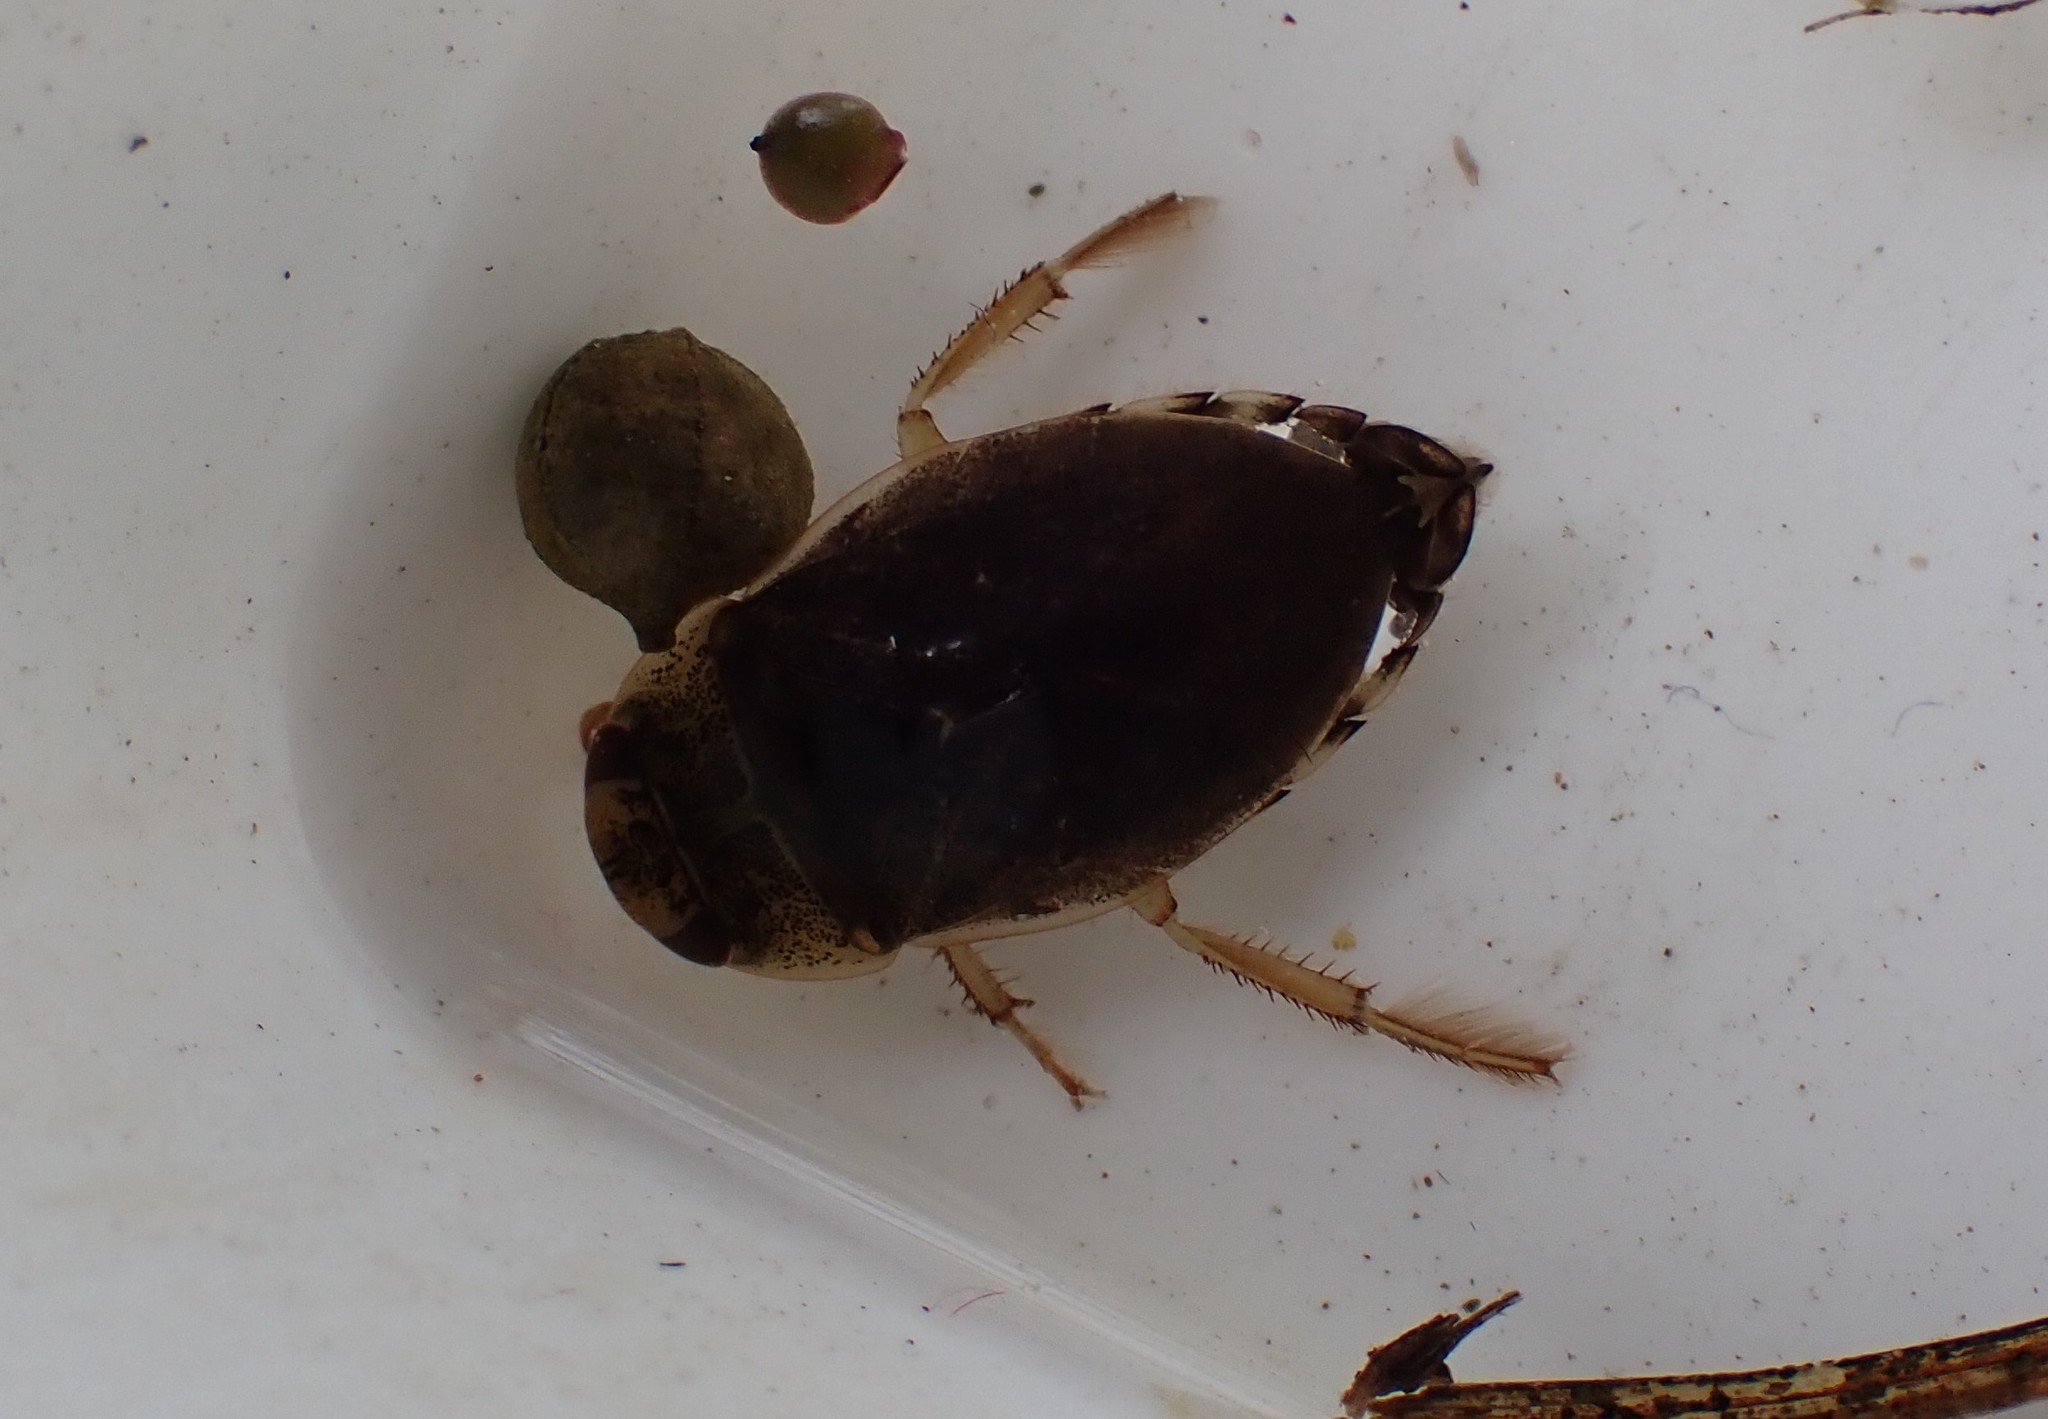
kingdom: Animalia
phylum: Arthropoda
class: Insecta
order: Hemiptera
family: Naucoridae
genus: Ilyocoris
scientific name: Ilyocoris cimicoides
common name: Saucer bugs
